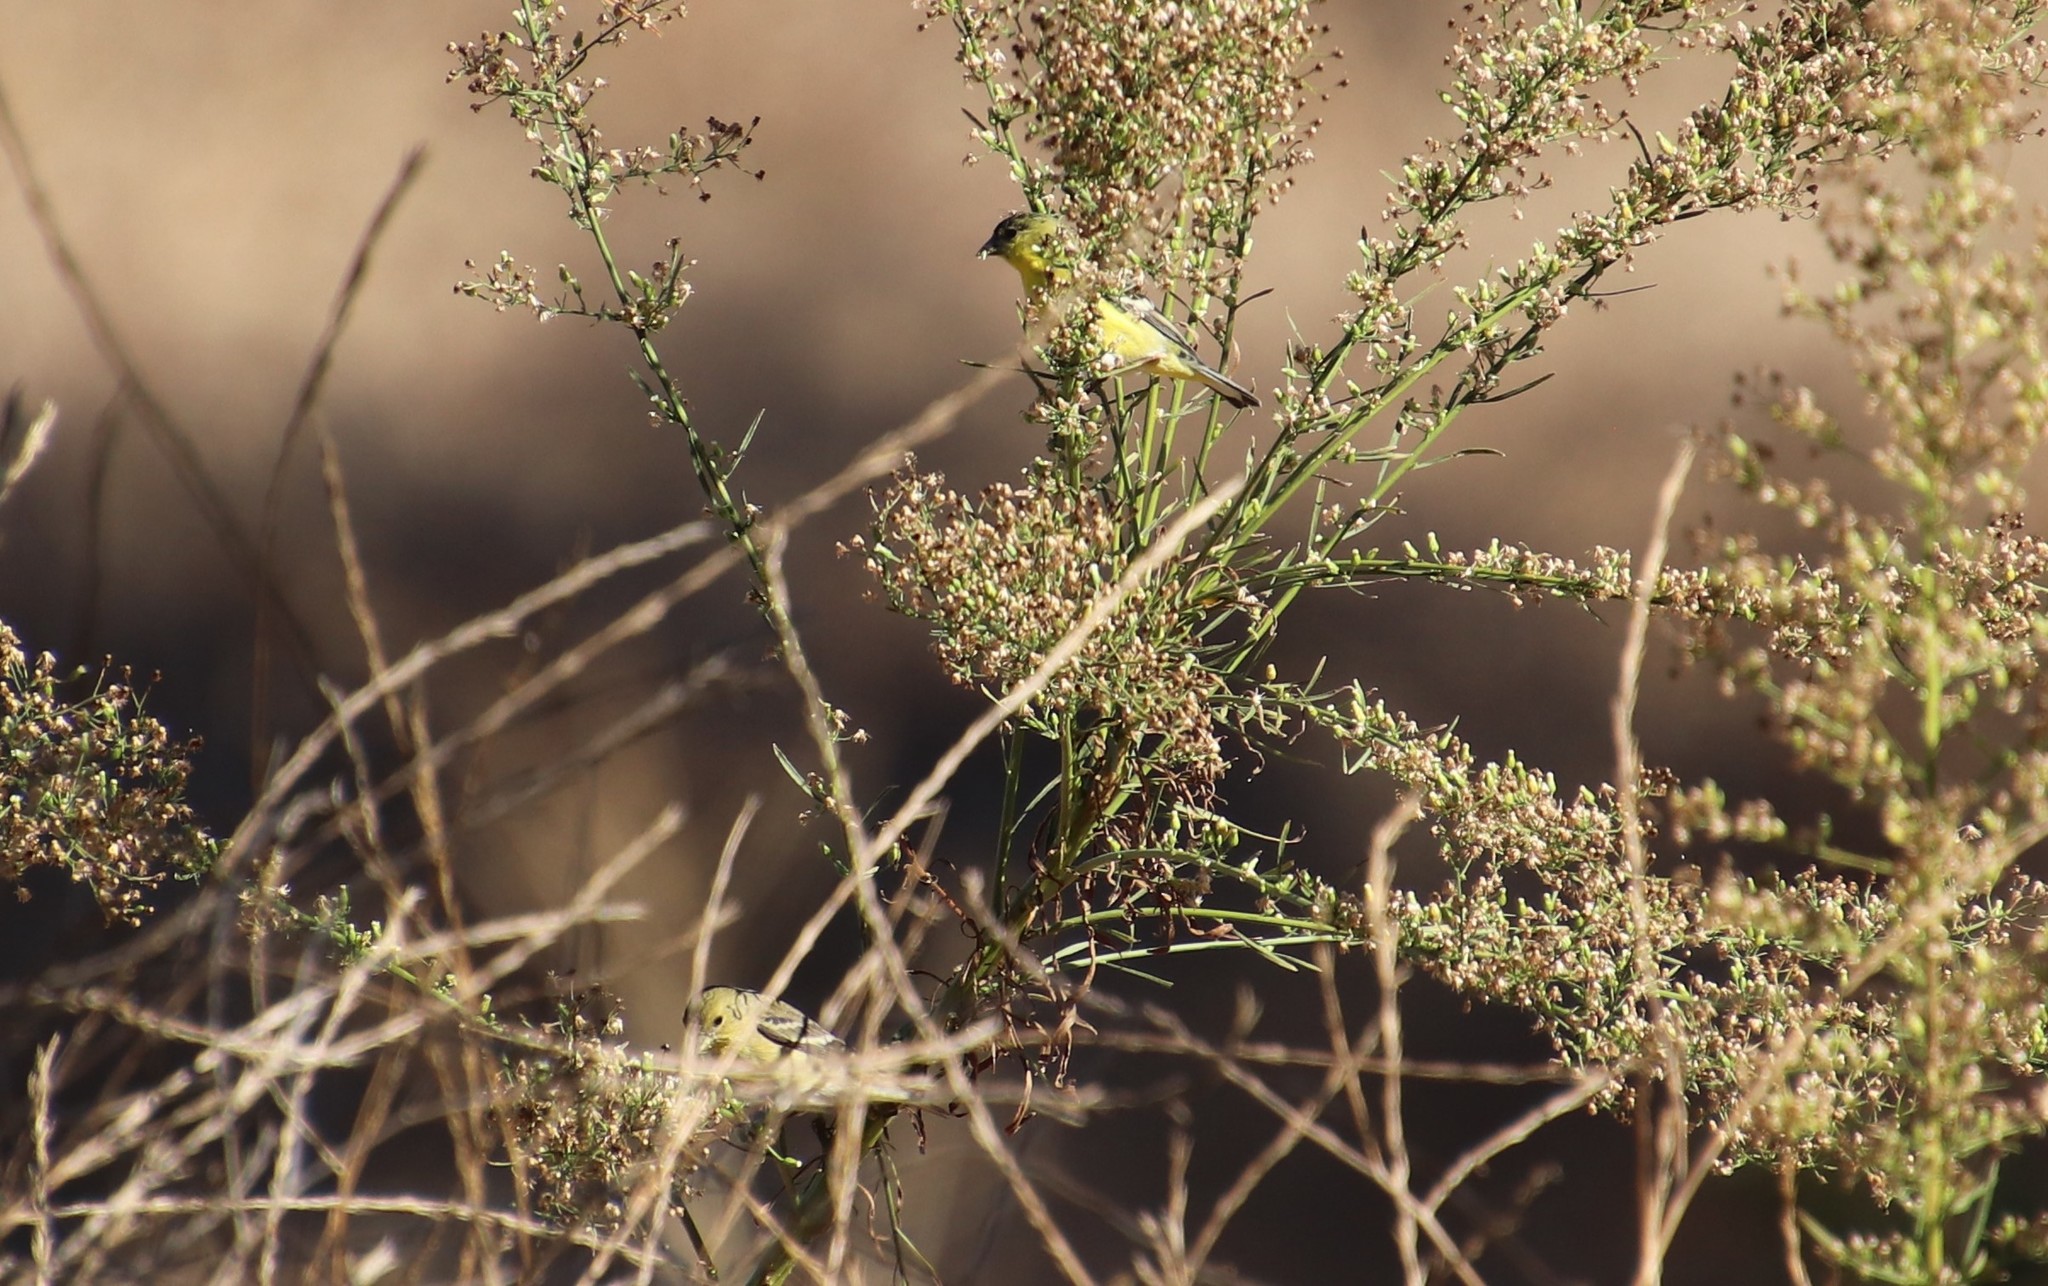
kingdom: Animalia
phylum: Chordata
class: Aves
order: Passeriformes
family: Fringillidae
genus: Spinus
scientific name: Spinus psaltria
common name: Lesser goldfinch
